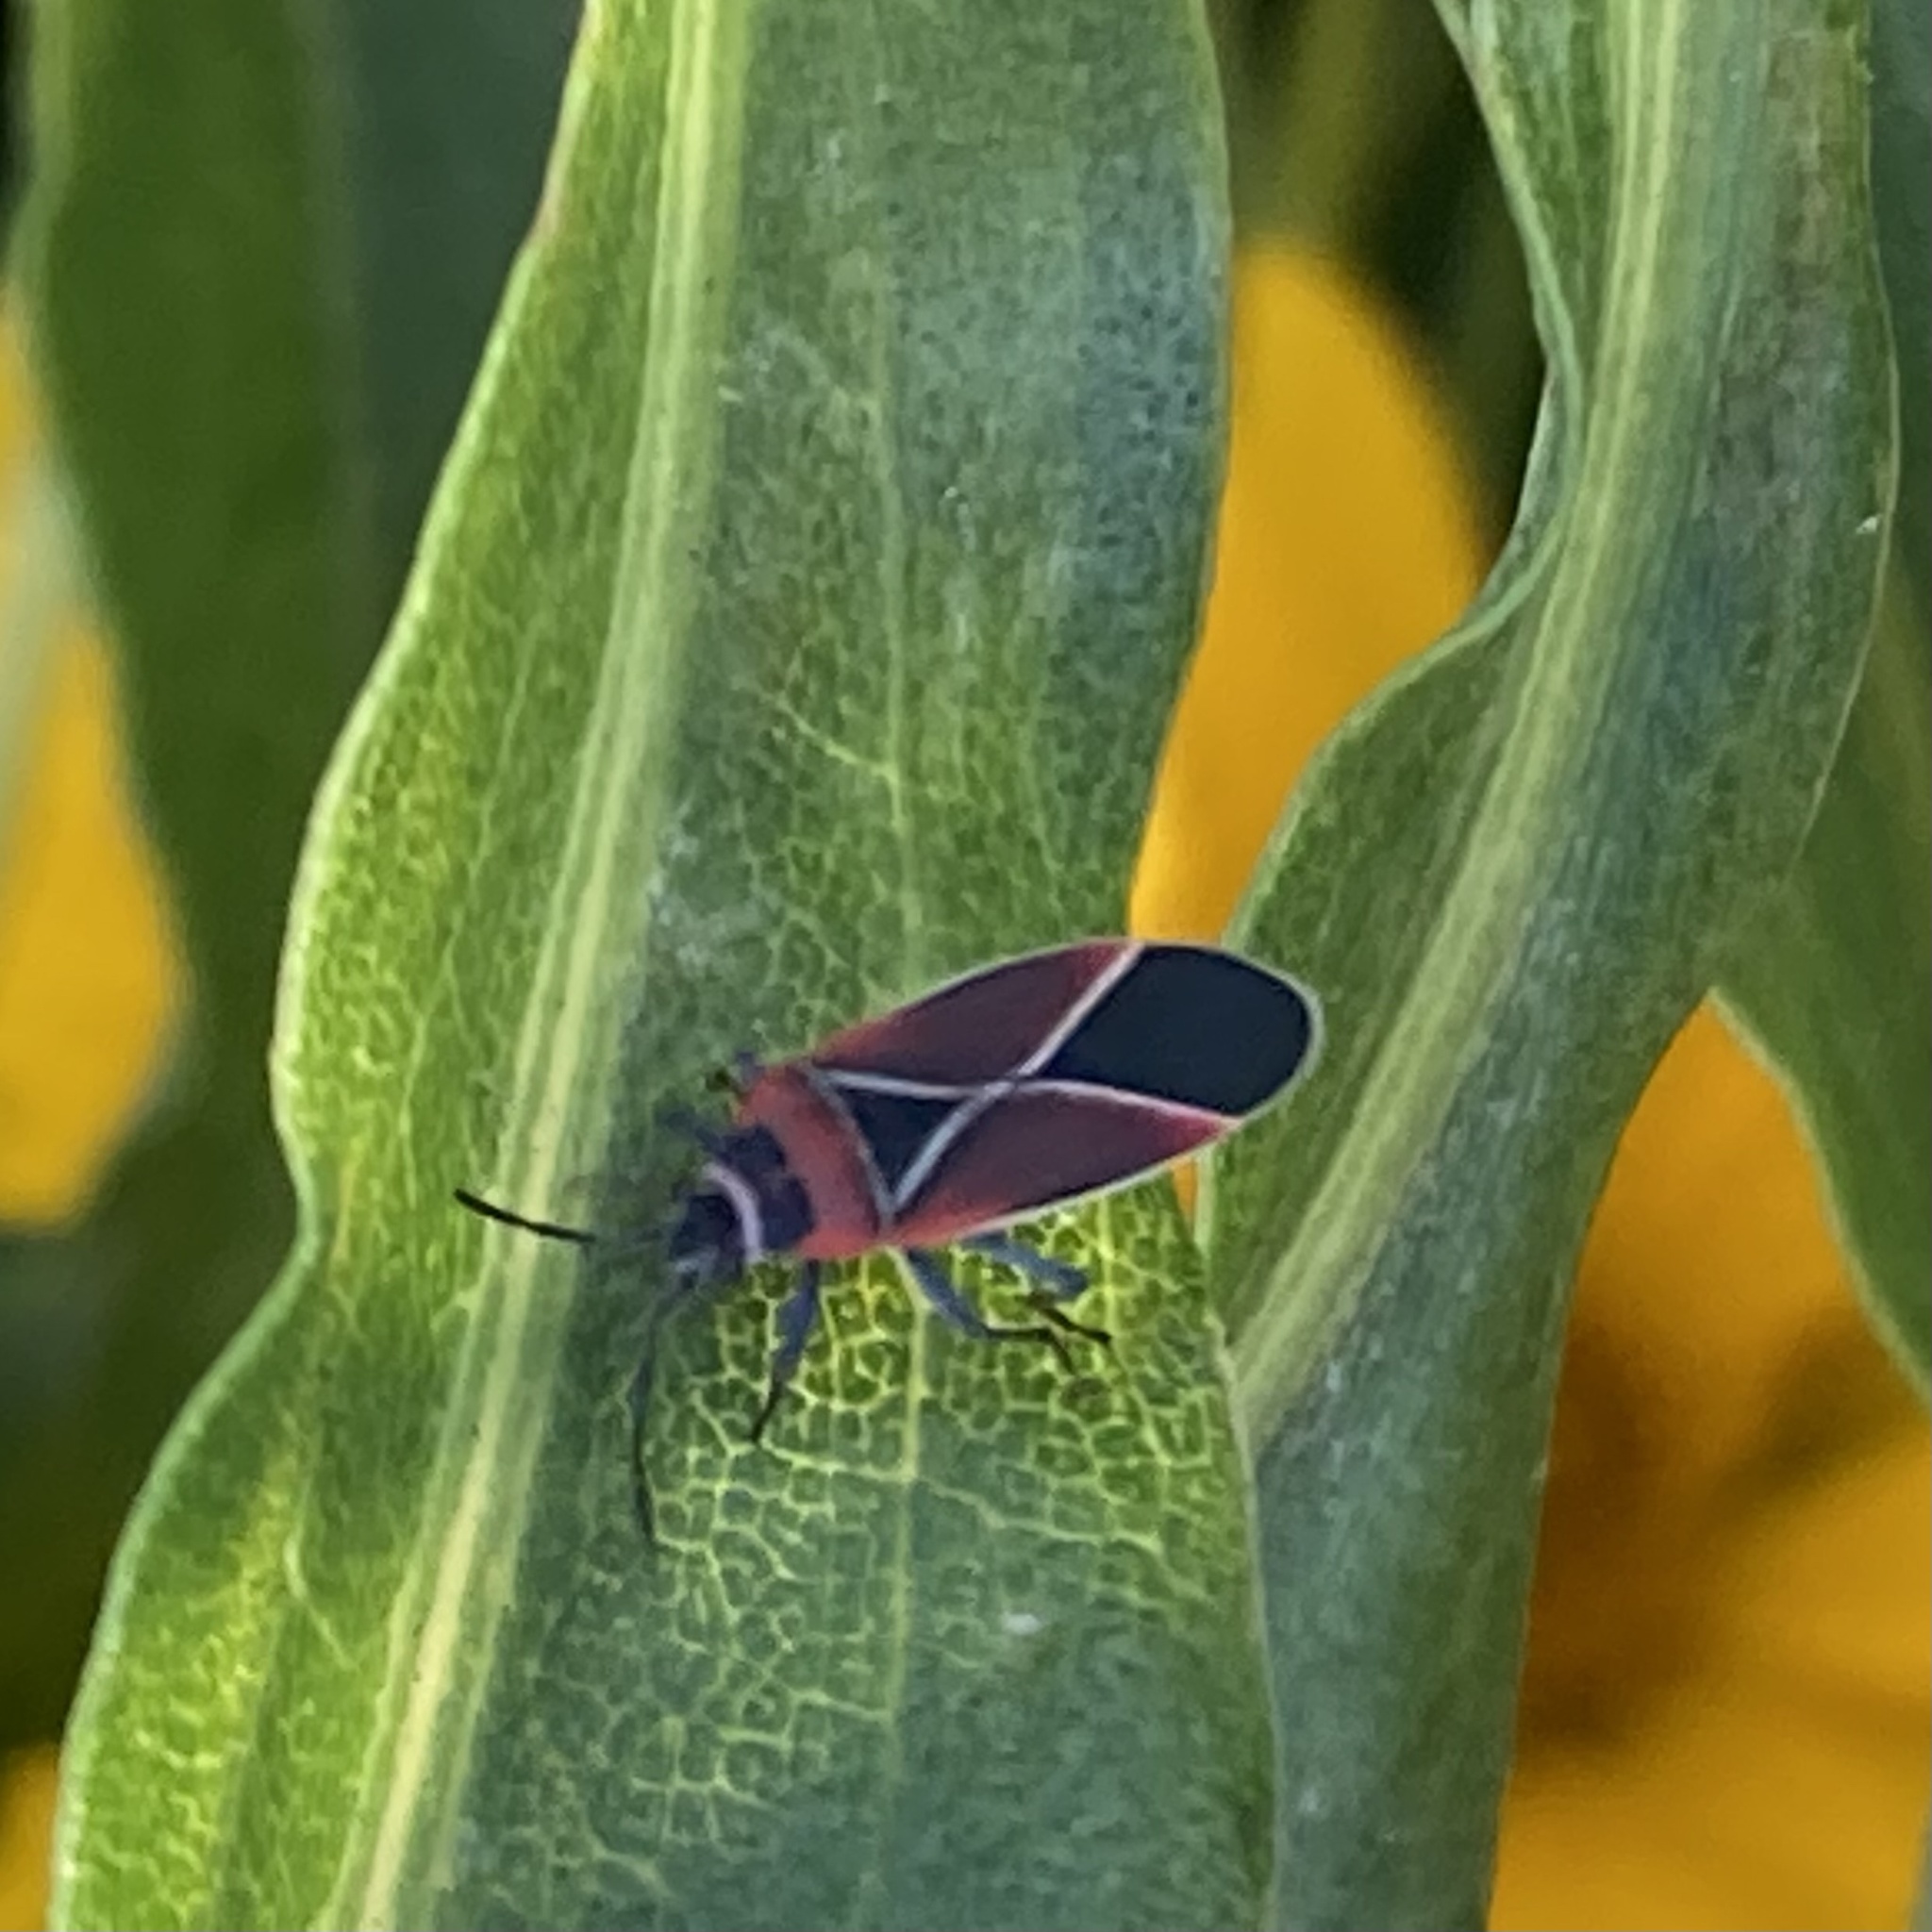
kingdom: Animalia
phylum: Arthropoda
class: Insecta
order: Hemiptera
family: Lygaeidae
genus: Neacoryphus
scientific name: Neacoryphus bicrucis
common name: Lygaeid bug
